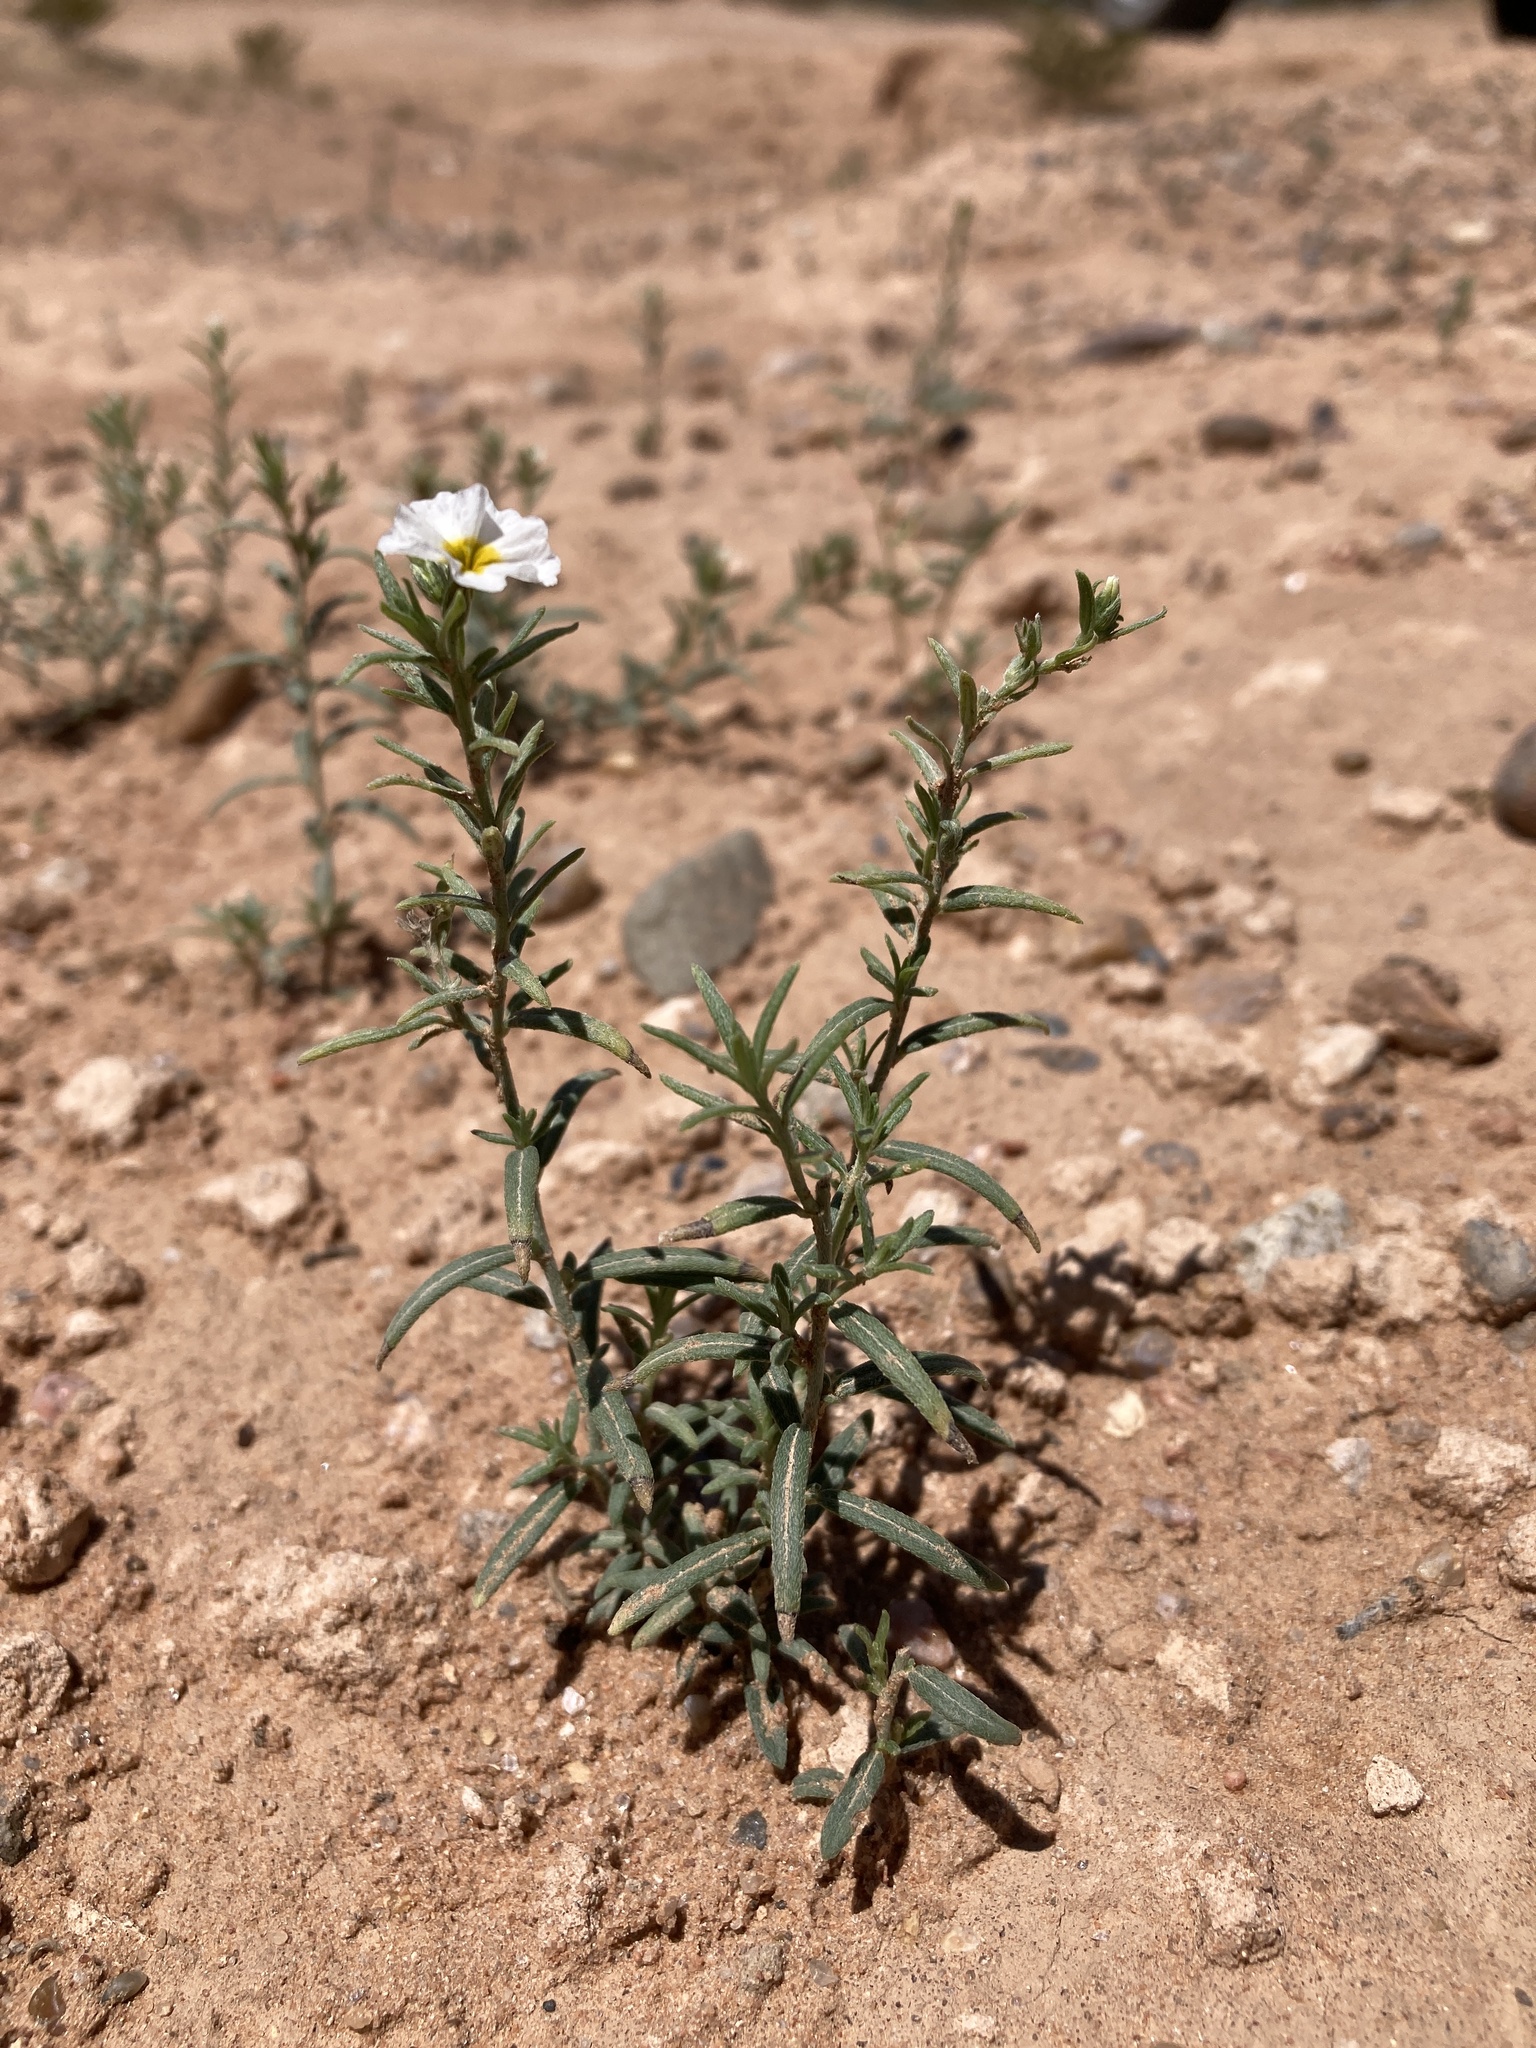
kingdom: Plantae
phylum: Tracheophyta
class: Magnoliopsida
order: Boraginales
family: Heliotropiaceae
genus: Euploca
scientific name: Euploca greggii
